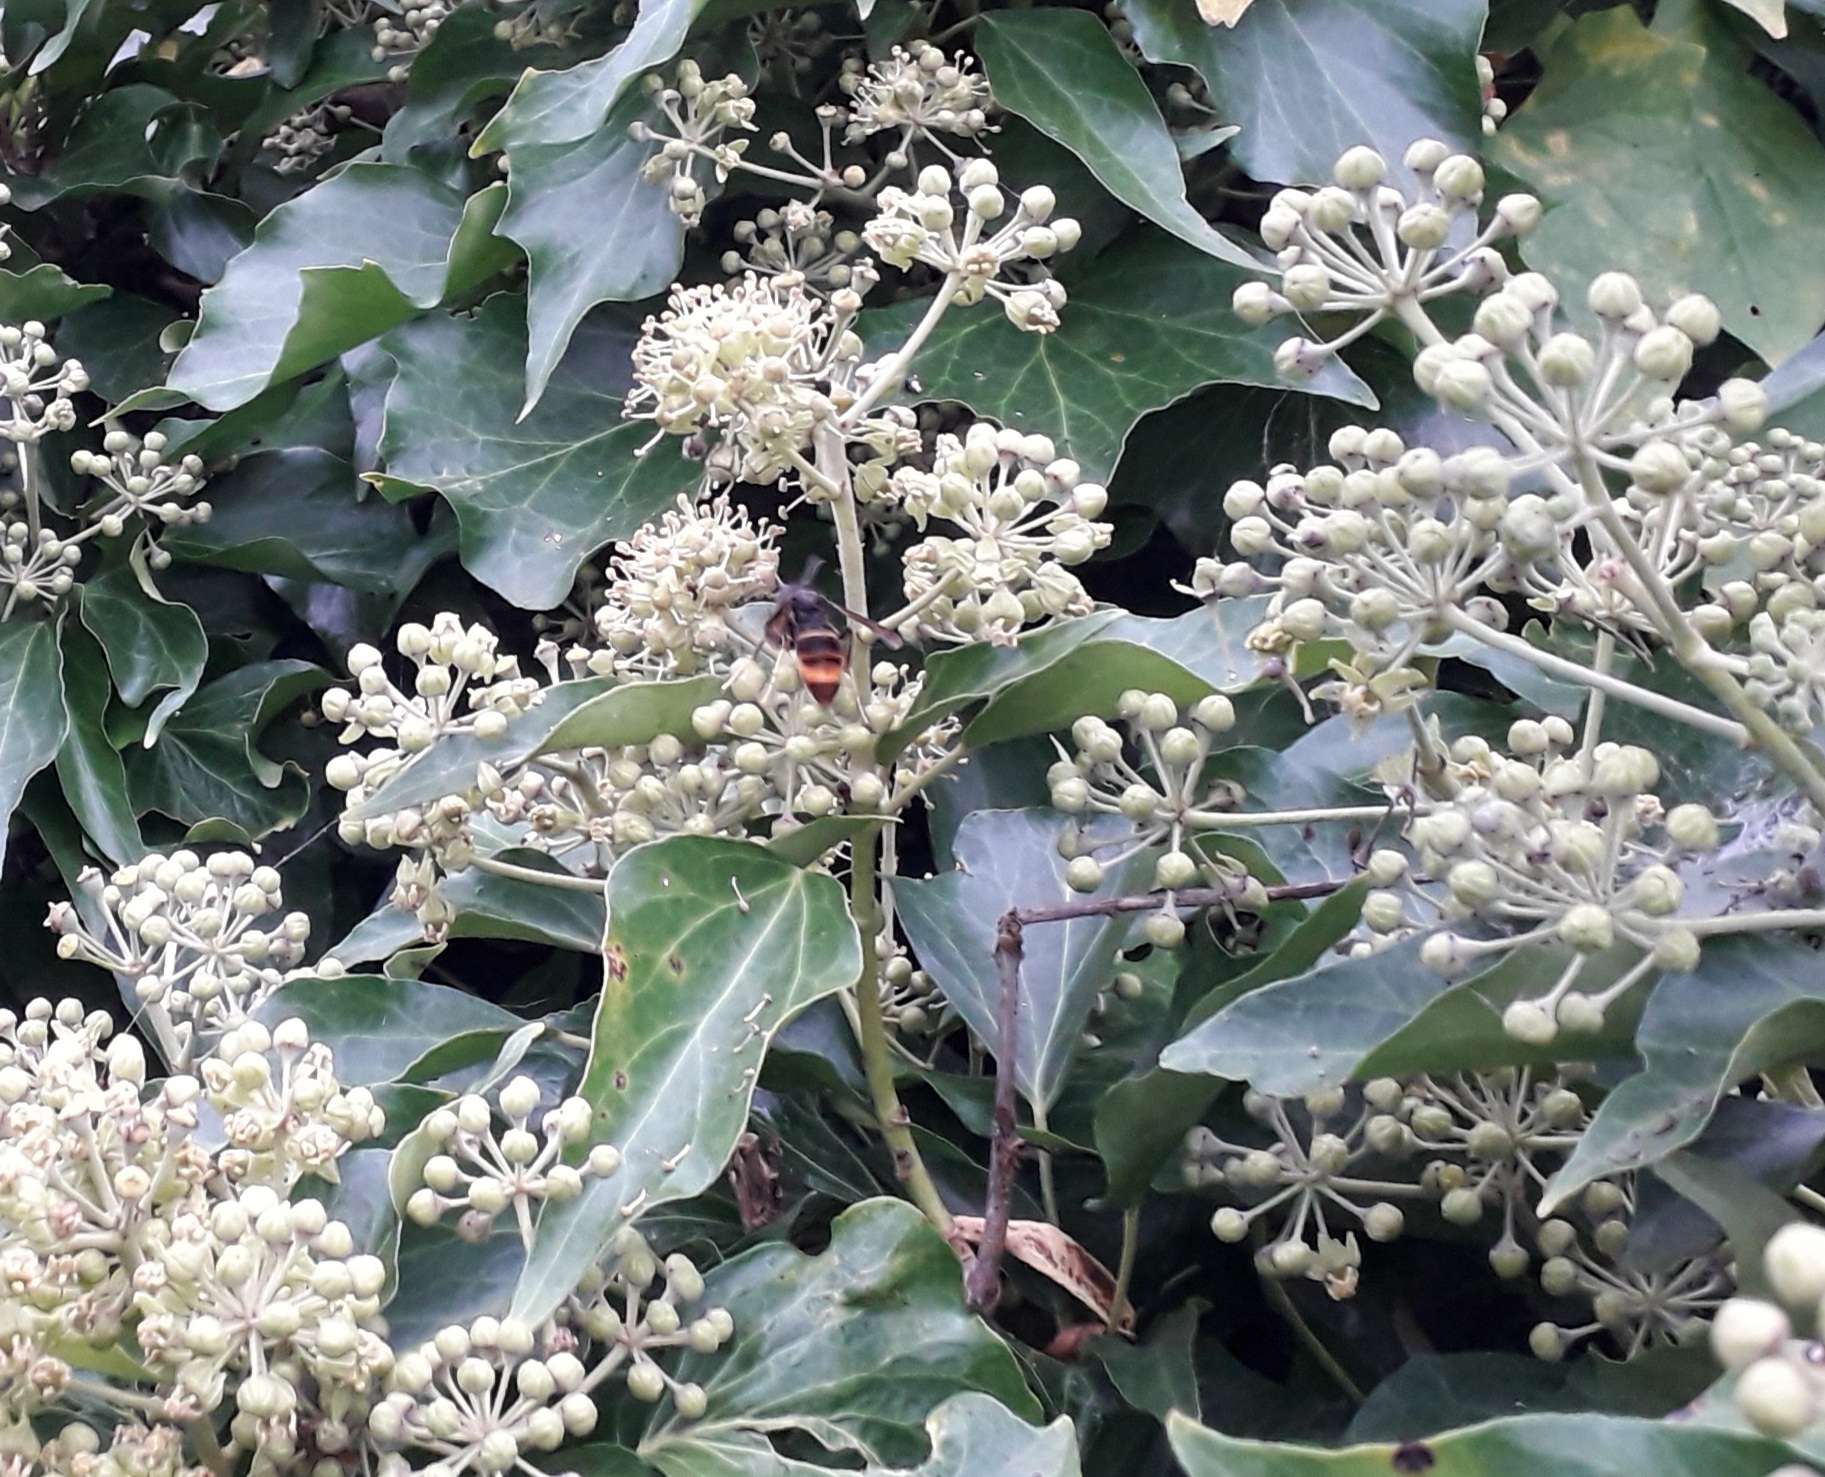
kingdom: Animalia
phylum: Arthropoda
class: Insecta
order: Hymenoptera
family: Vespidae
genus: Vespa
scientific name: Vespa velutina
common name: Asian hornet
